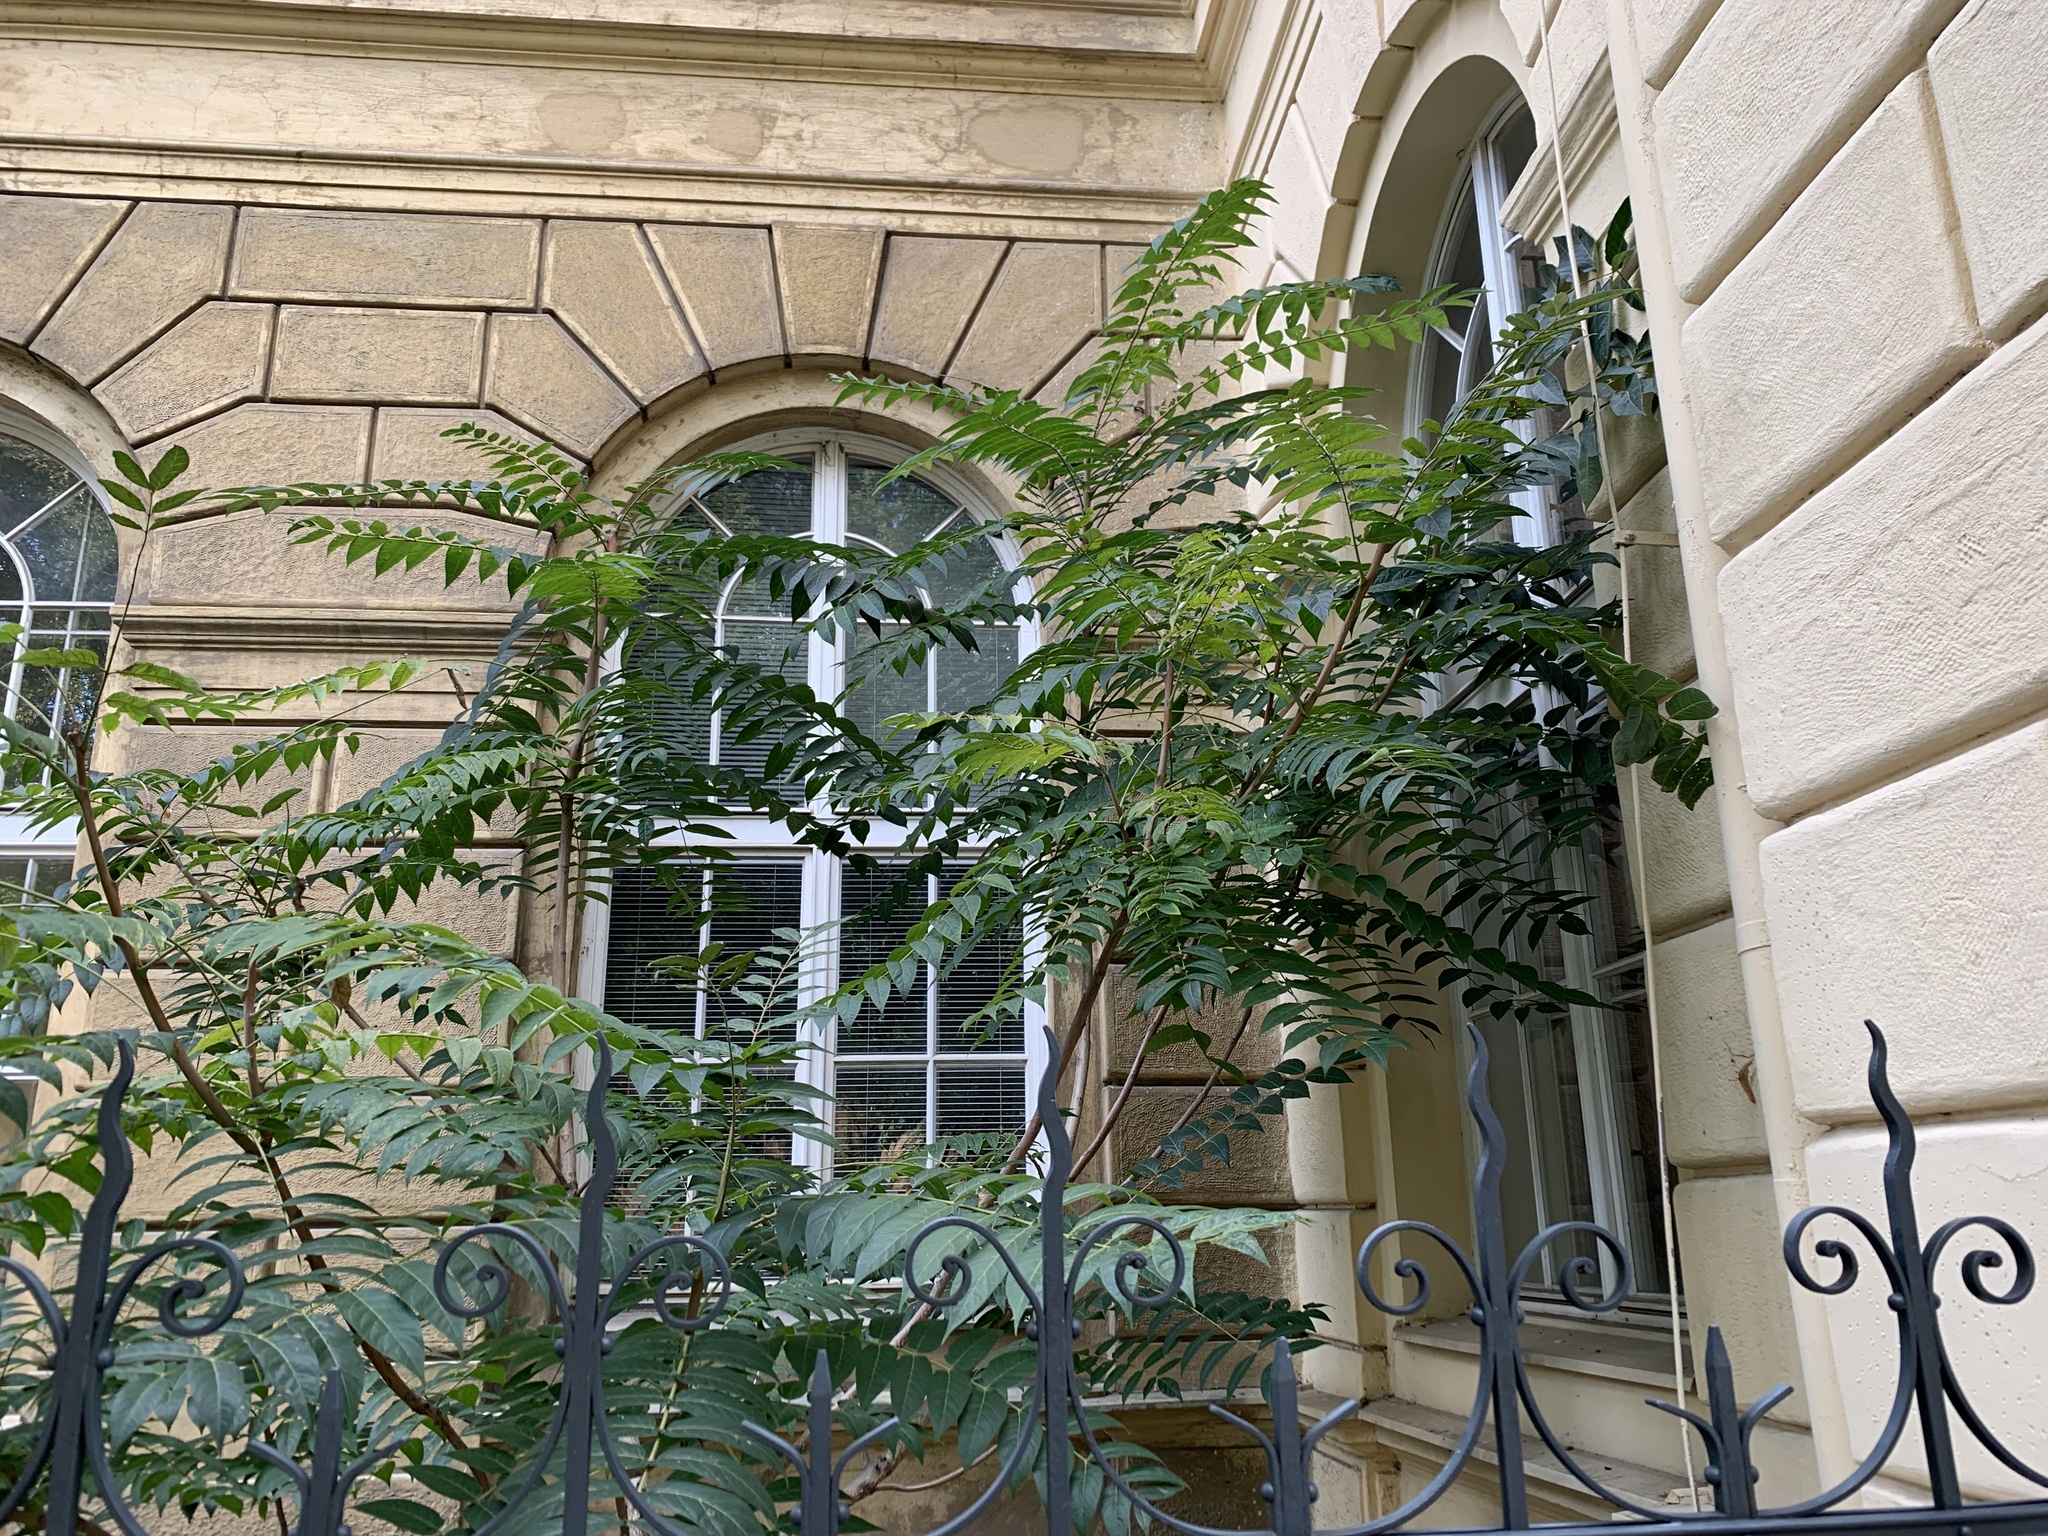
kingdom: Plantae
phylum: Tracheophyta
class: Magnoliopsida
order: Sapindales
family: Simaroubaceae
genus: Ailanthus
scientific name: Ailanthus altissima
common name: Tree-of-heaven
